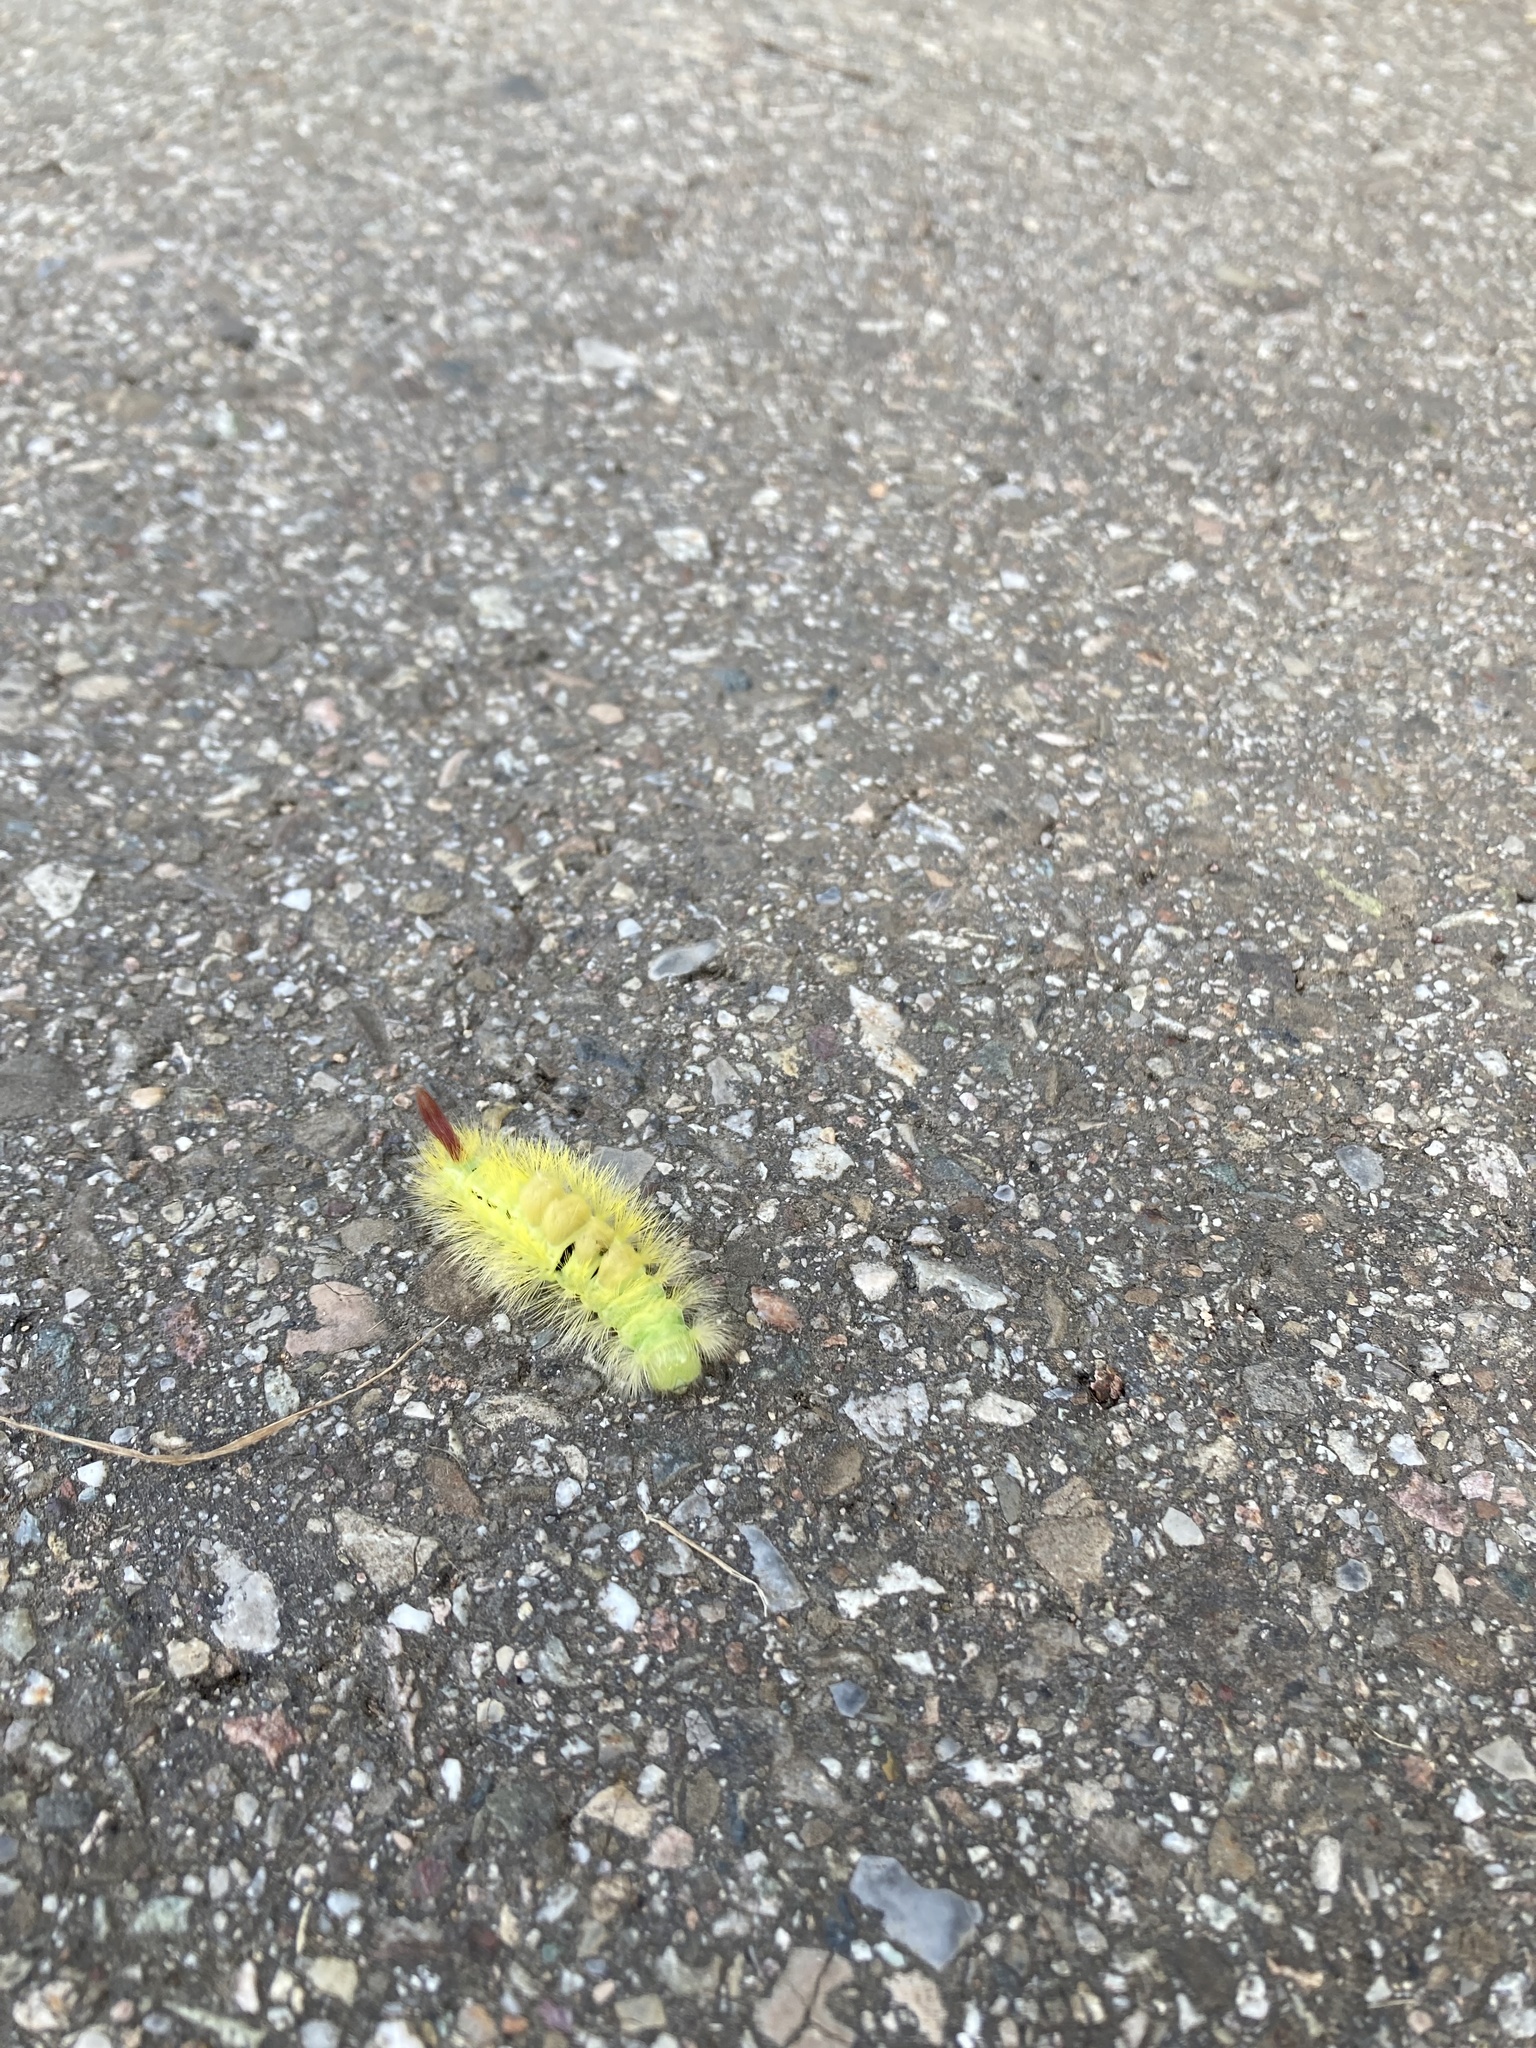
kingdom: Animalia
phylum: Arthropoda
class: Insecta
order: Lepidoptera
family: Erebidae
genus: Calliteara
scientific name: Calliteara pudibunda
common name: Pale tussock
